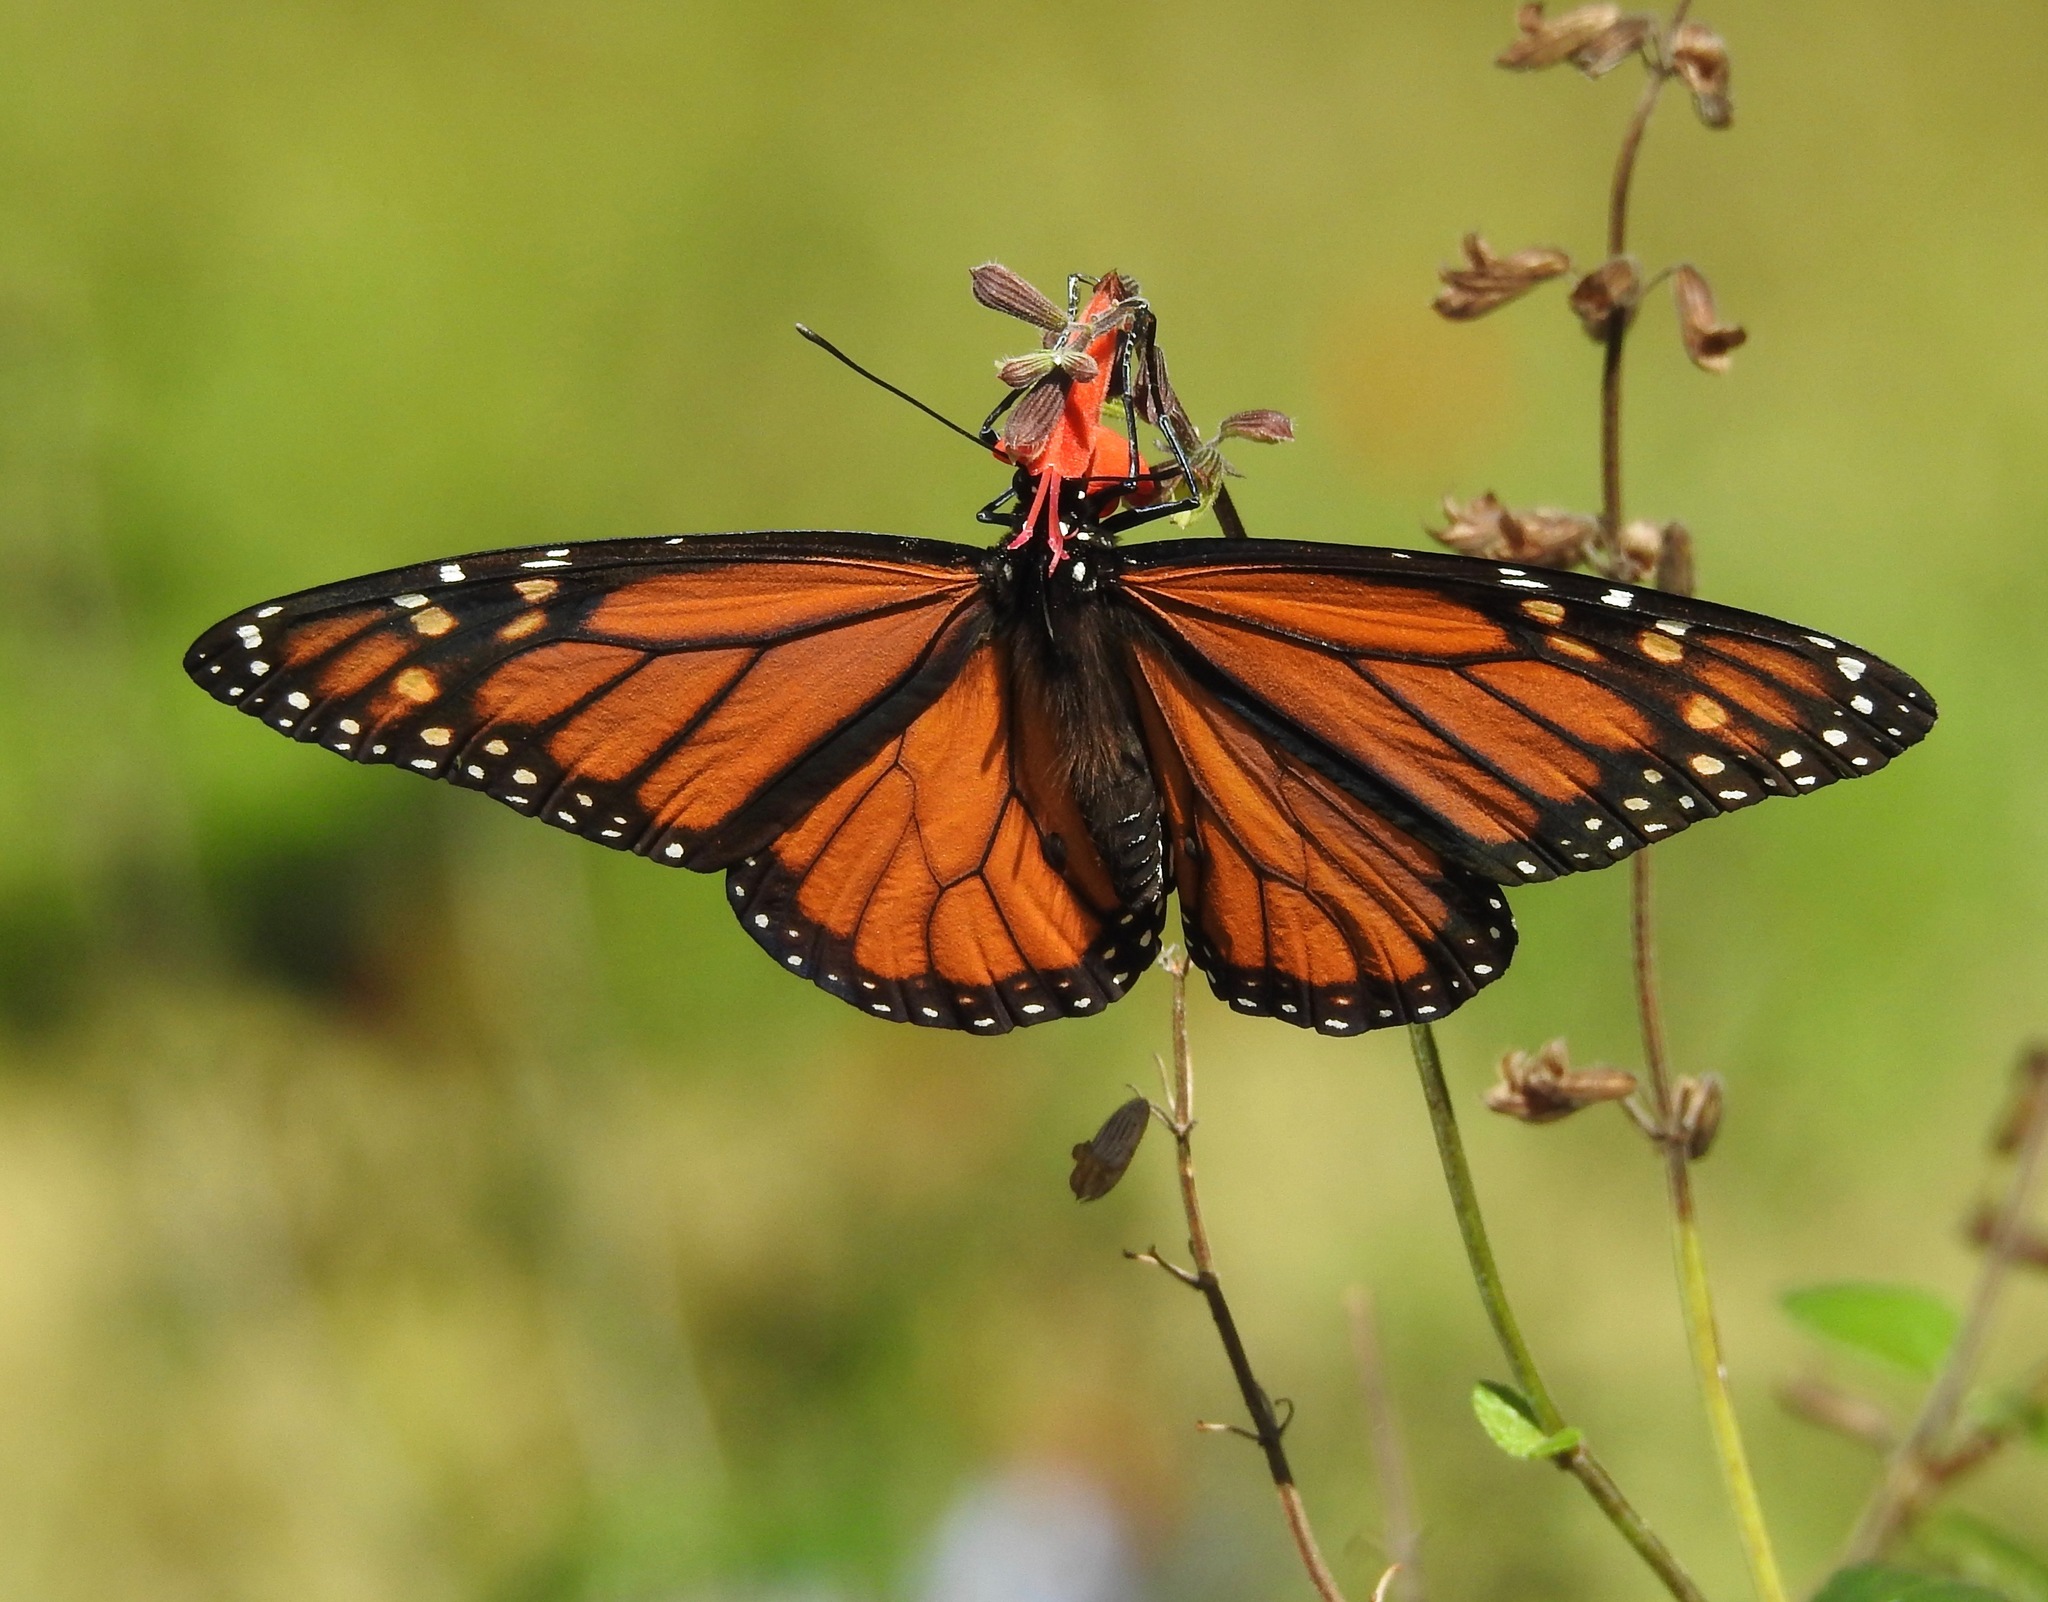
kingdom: Animalia
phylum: Arthropoda
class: Insecta
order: Lepidoptera
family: Nymphalidae
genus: Danaus
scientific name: Danaus plexippus
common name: Monarch
